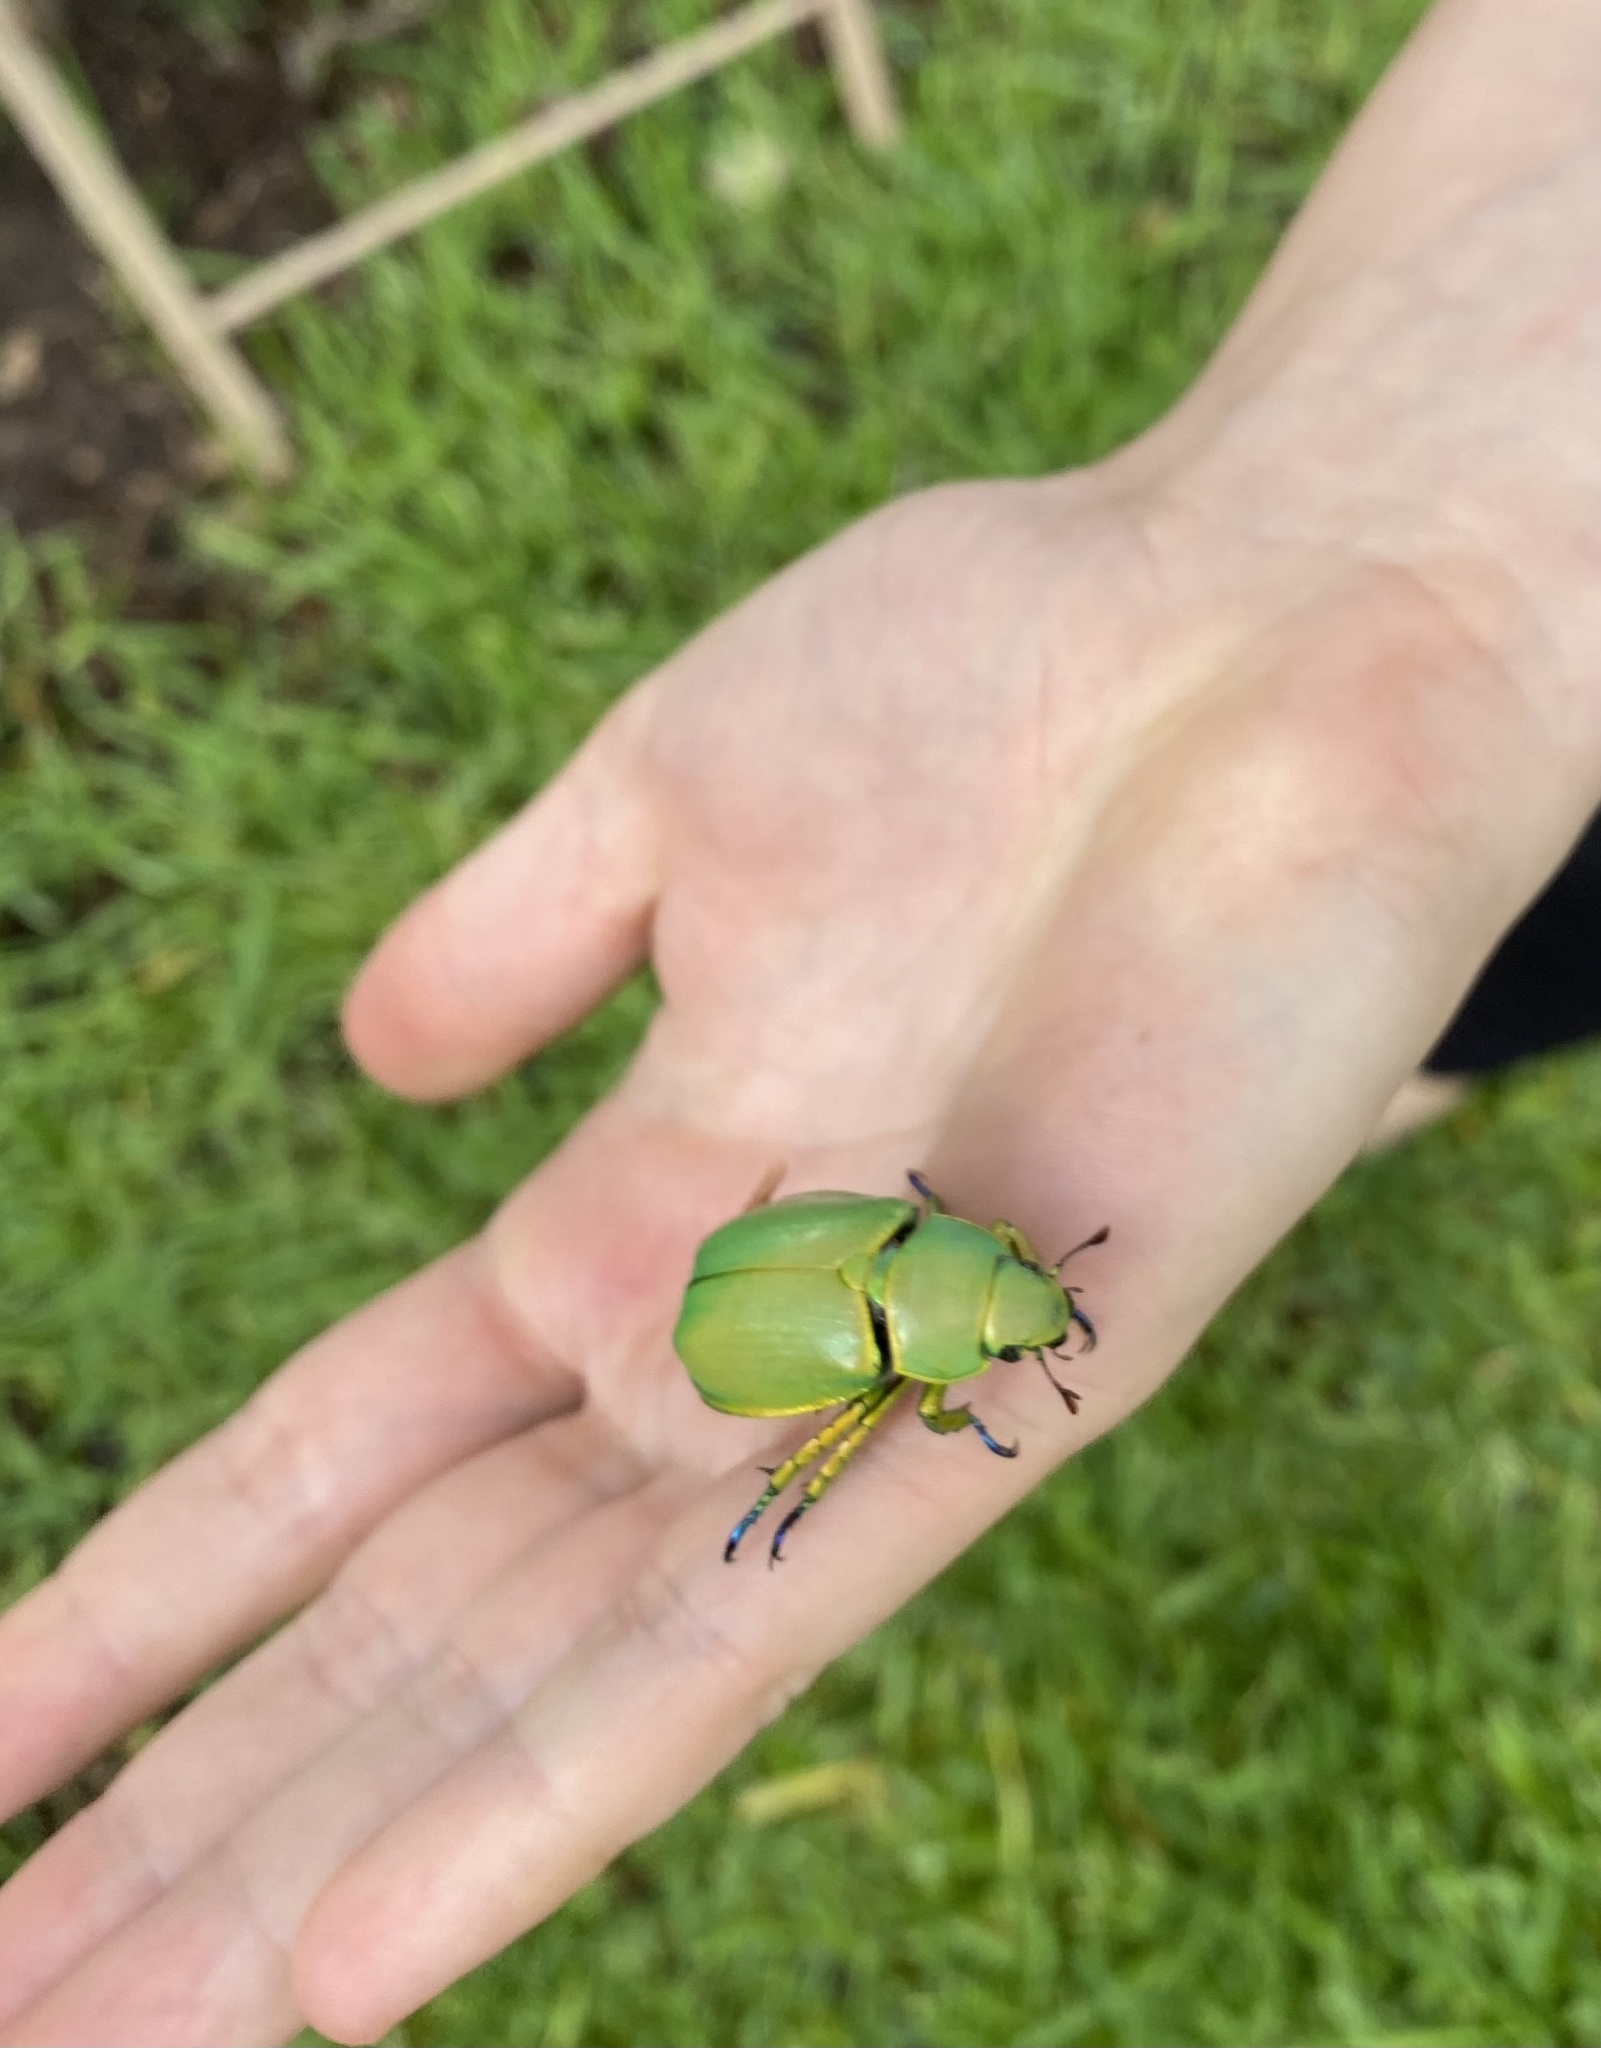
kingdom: Animalia
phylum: Arthropoda
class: Insecta
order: Coleoptera
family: Scarabaeidae
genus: Chrysina
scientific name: Chrysina woodi
